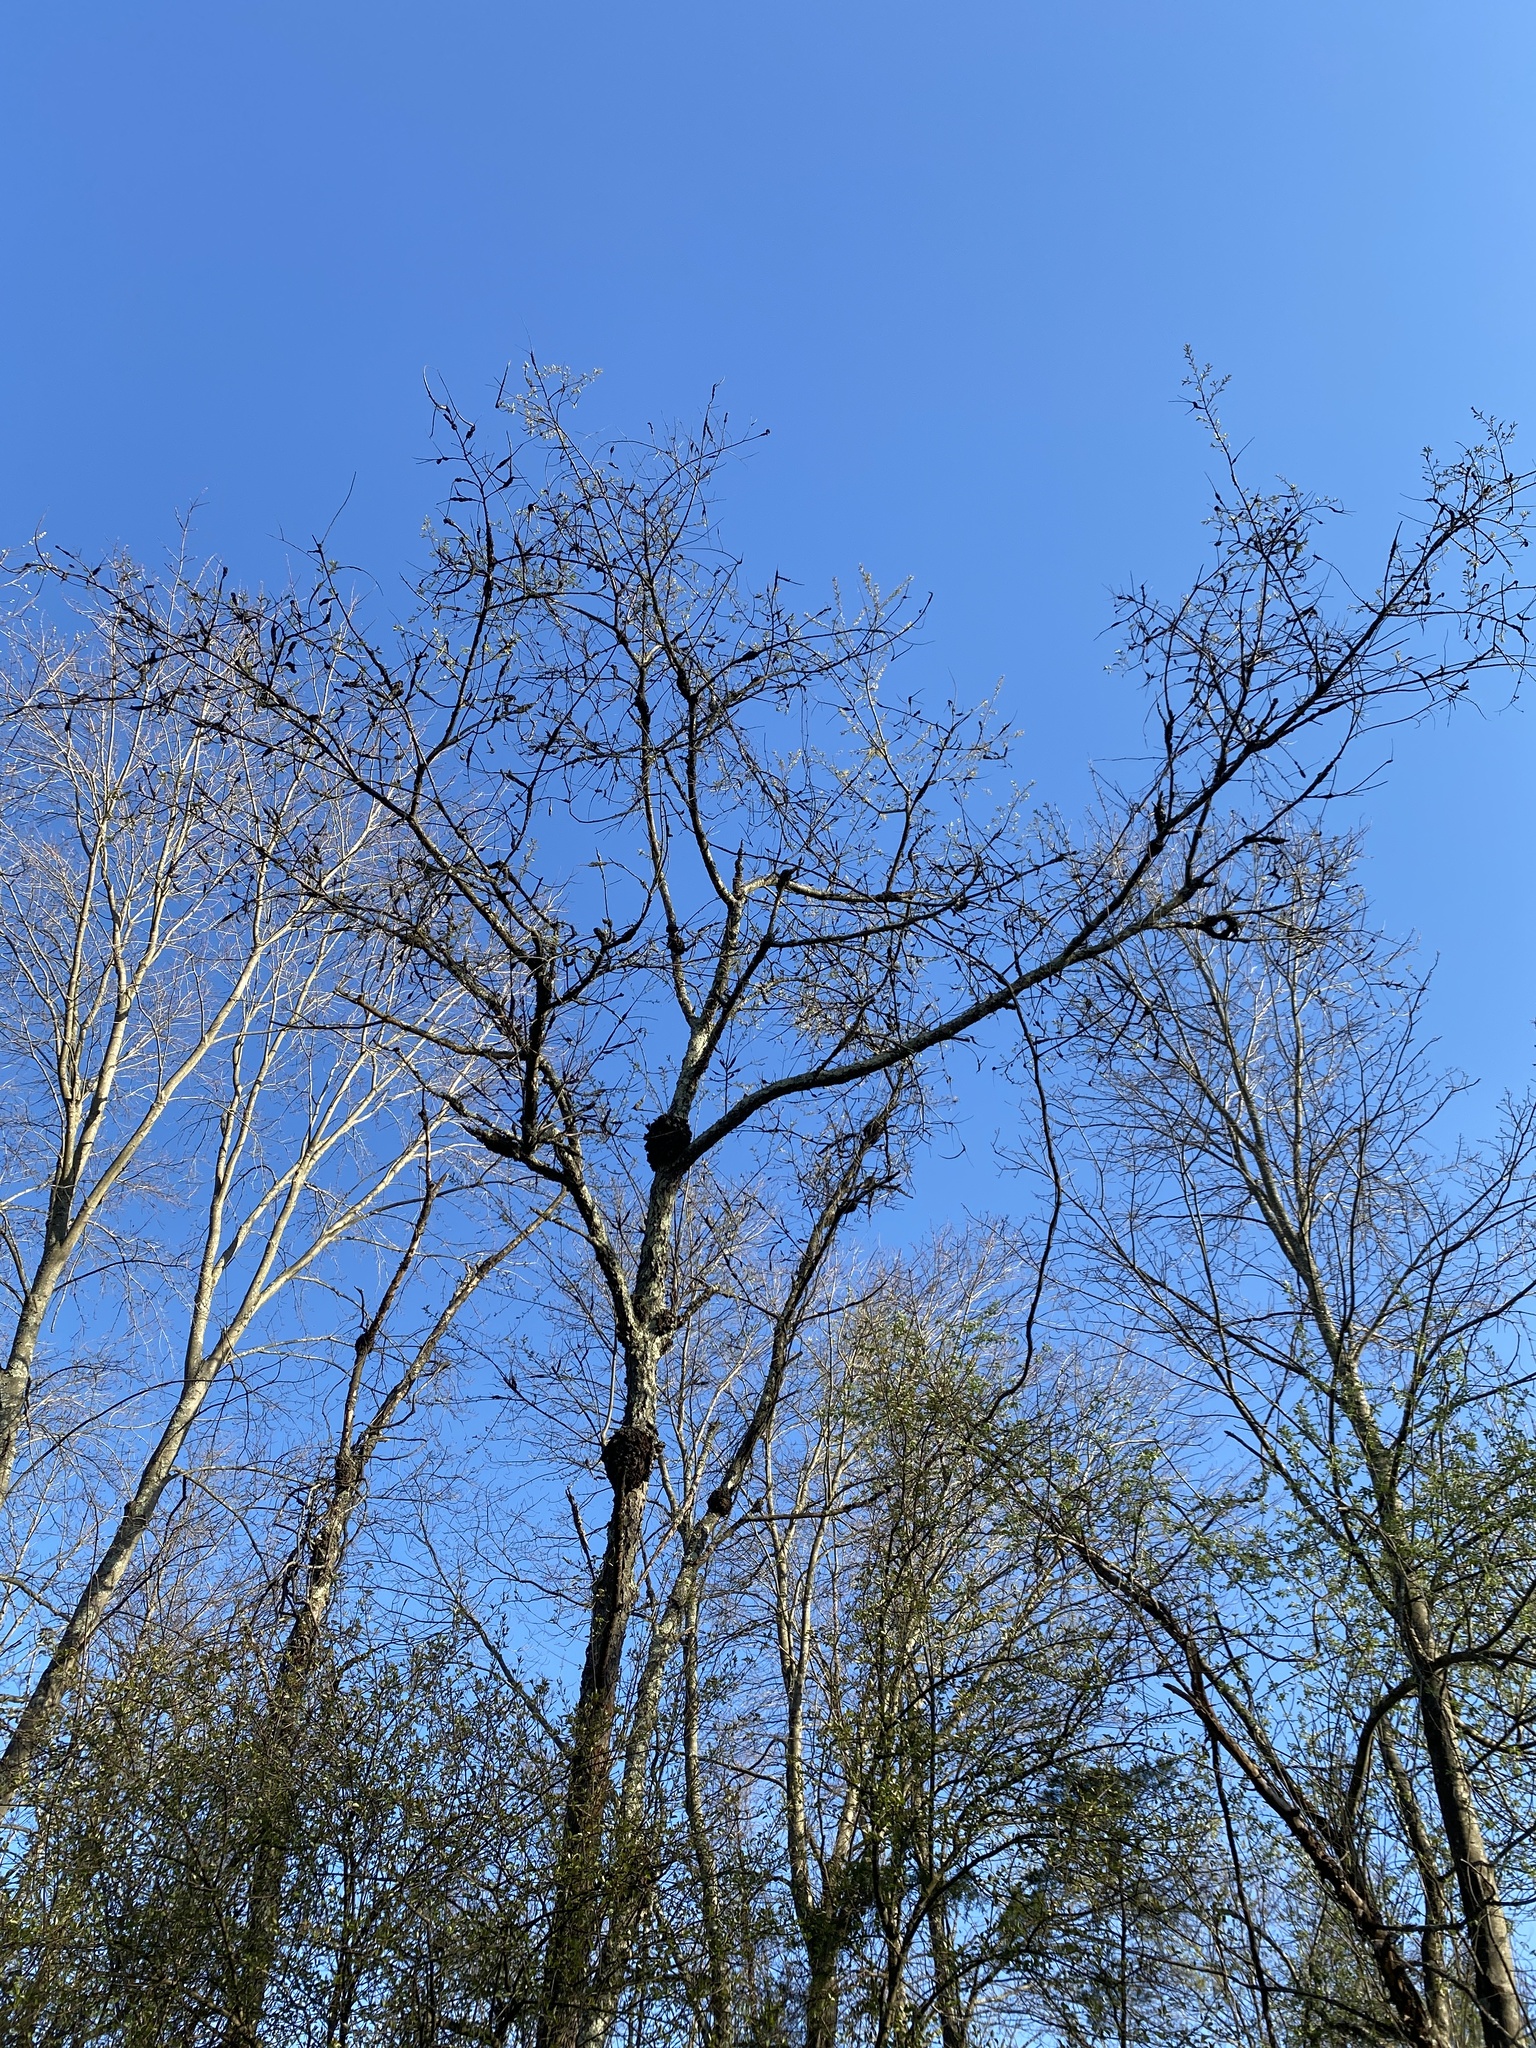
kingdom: Fungi
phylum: Ascomycota
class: Dothideomycetes
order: Venturiales
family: Venturiaceae
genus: Apiosporina
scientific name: Apiosporina morbosa
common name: Black knot
